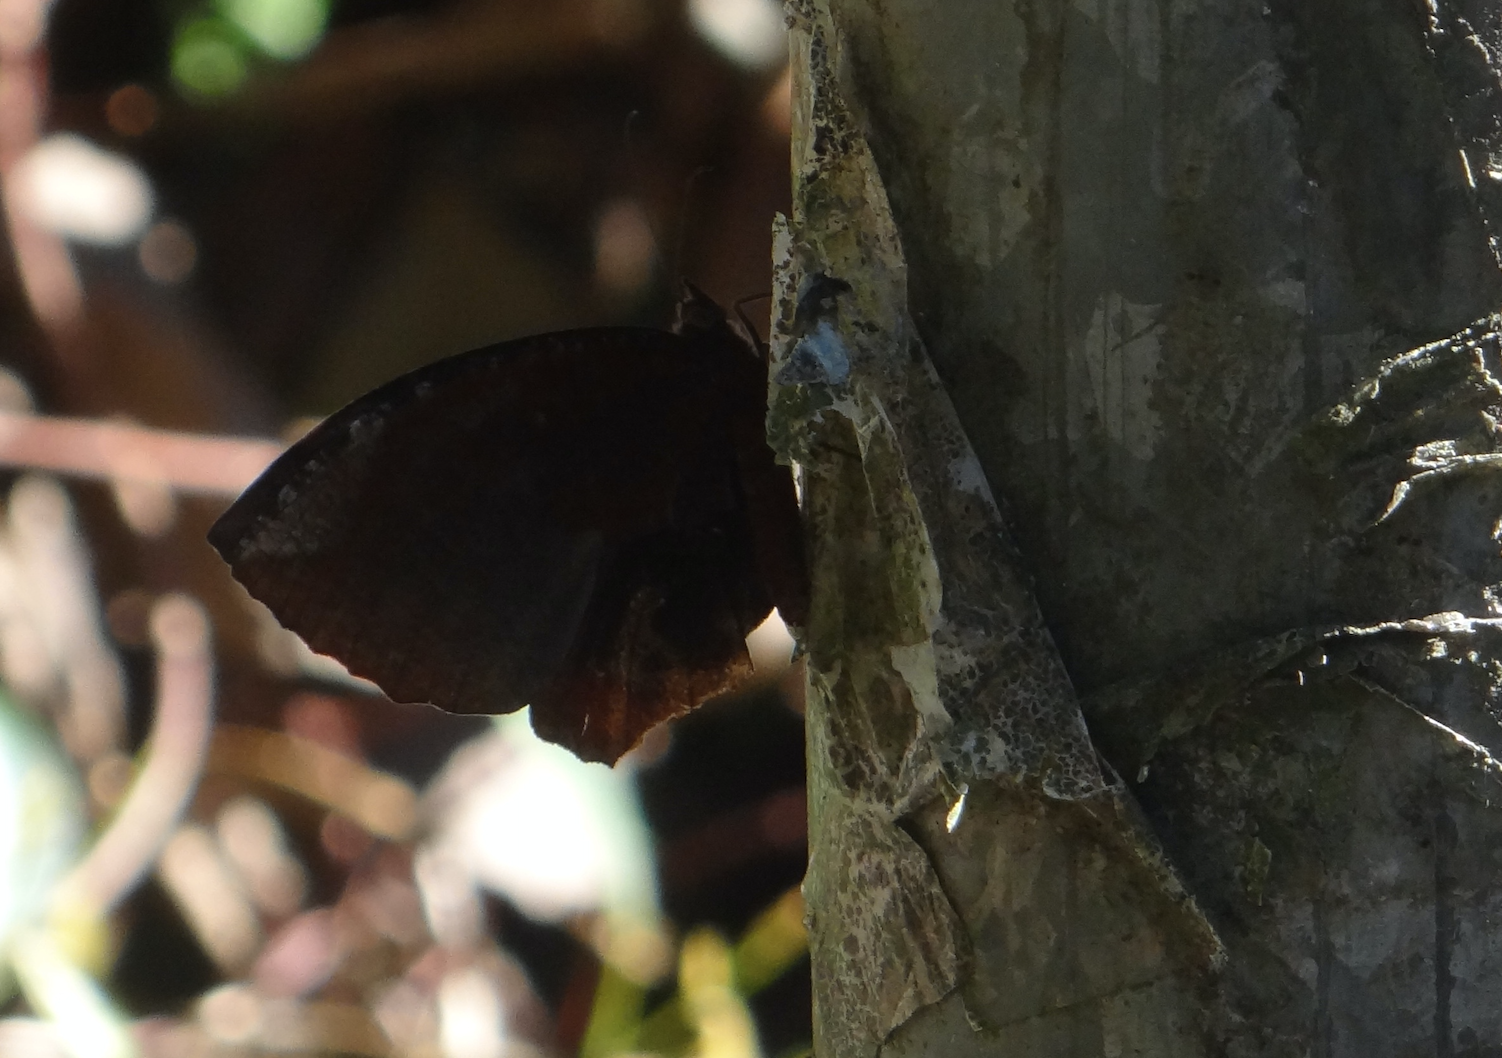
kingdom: Animalia
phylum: Arthropoda
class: Insecta
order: Lepidoptera
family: Nymphalidae
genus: Elymnias
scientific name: Elymnias hypermnestra
